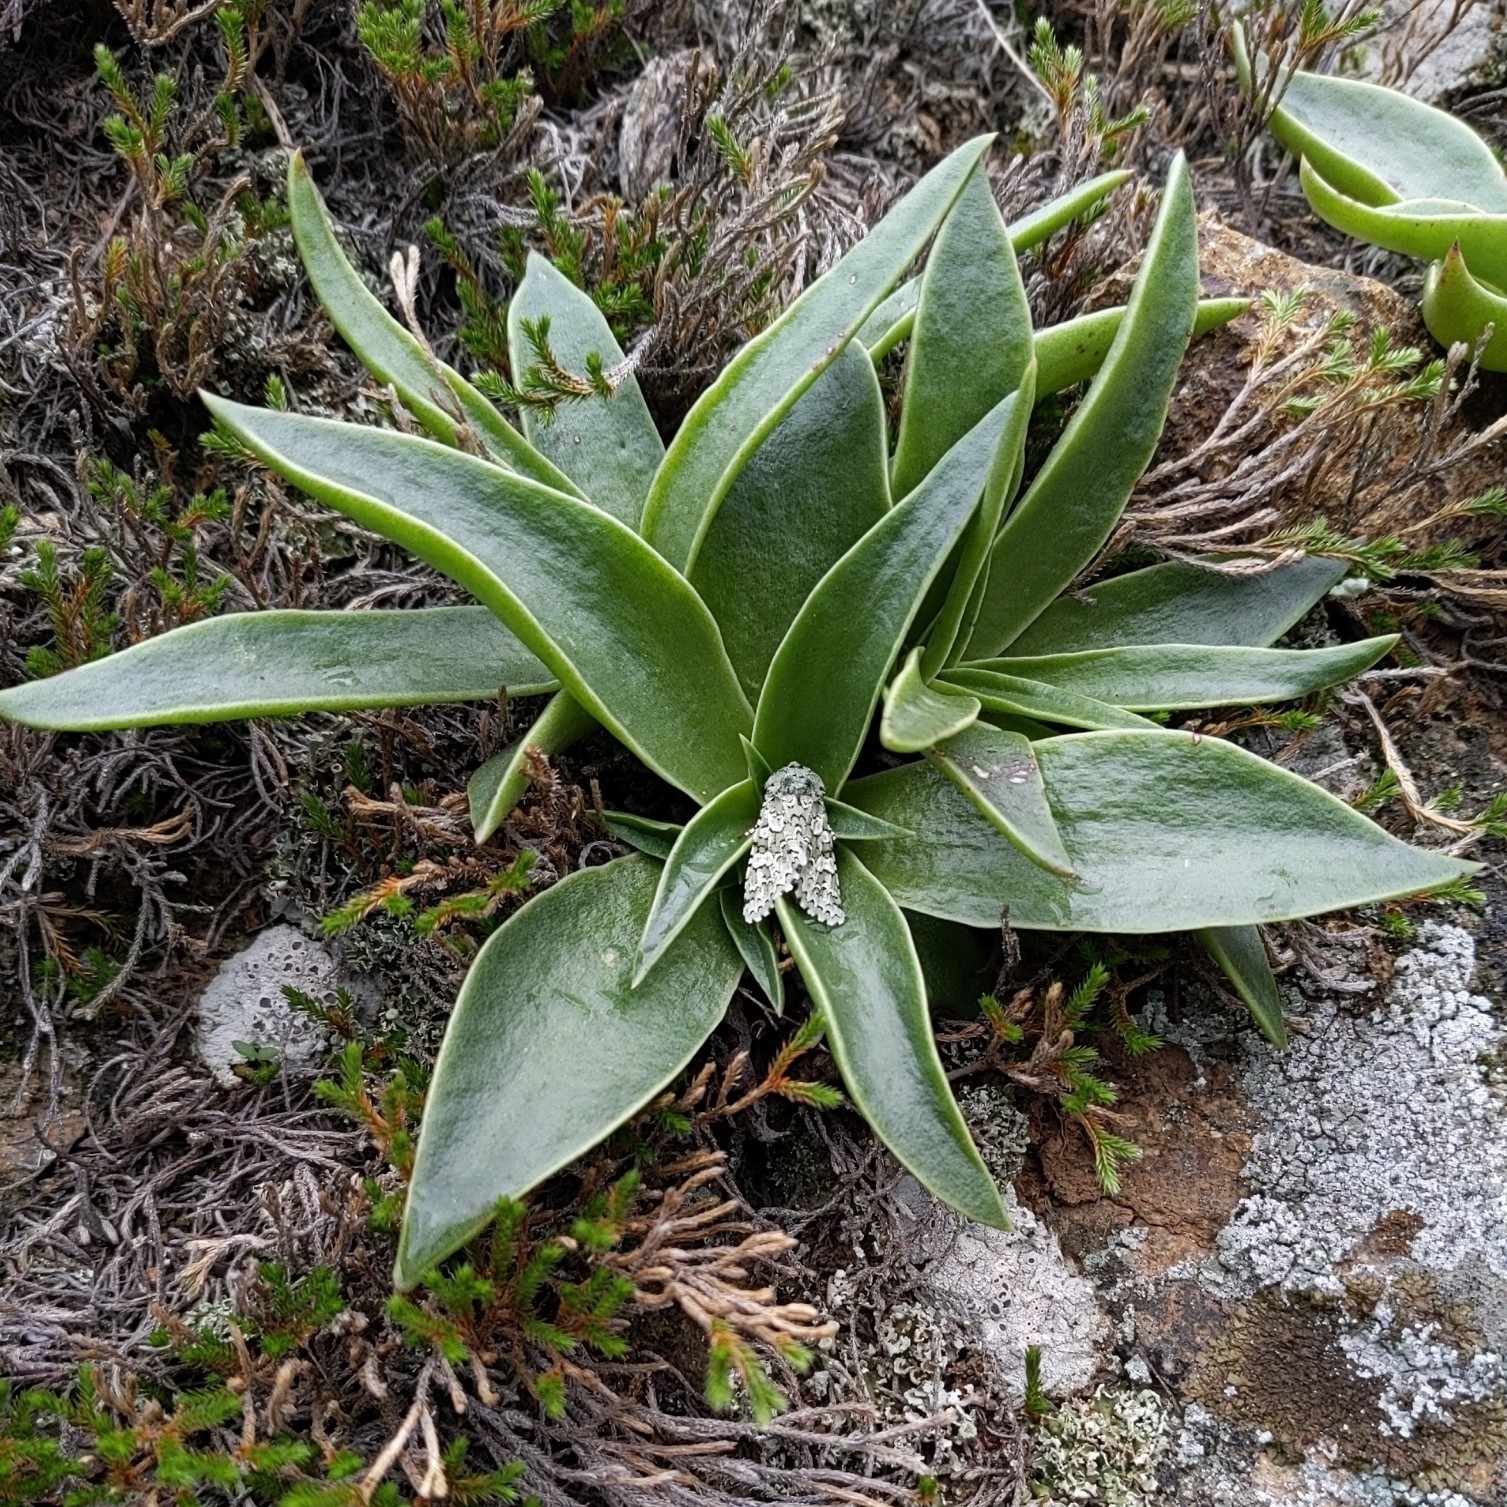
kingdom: Animalia
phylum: Arthropoda
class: Insecta
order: Lepidoptera
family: Noctuidae
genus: Feralia
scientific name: Feralia februalis
